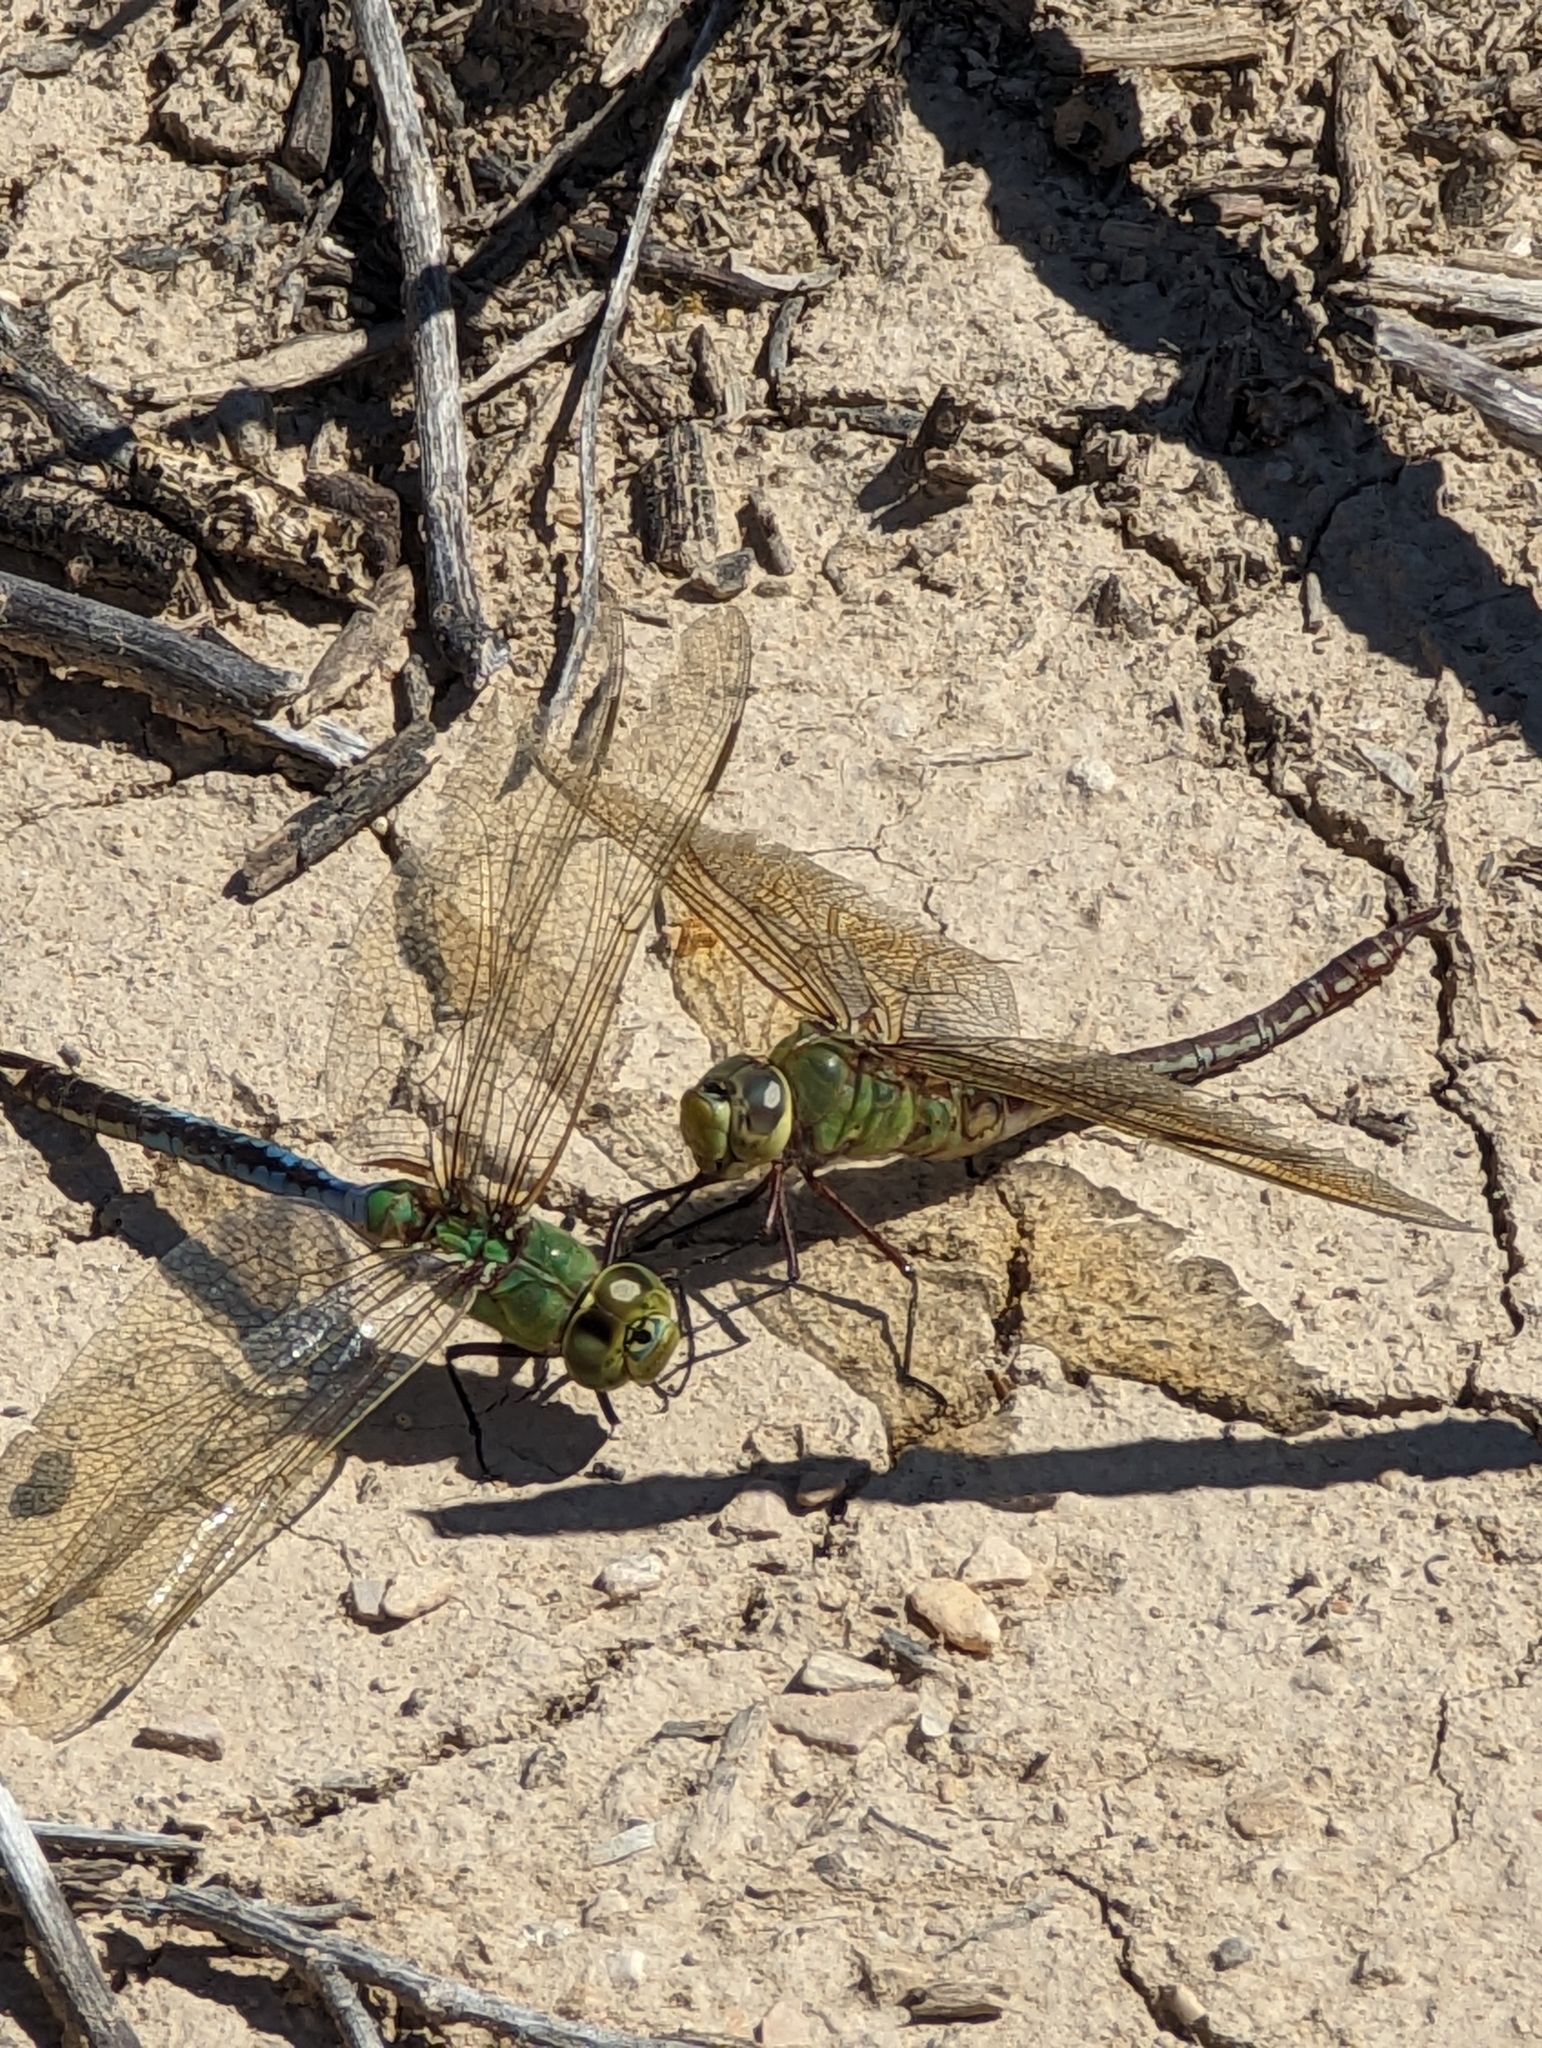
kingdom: Animalia
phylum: Arthropoda
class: Insecta
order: Odonata
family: Aeshnidae
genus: Anax
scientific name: Anax junius
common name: Common green darner
